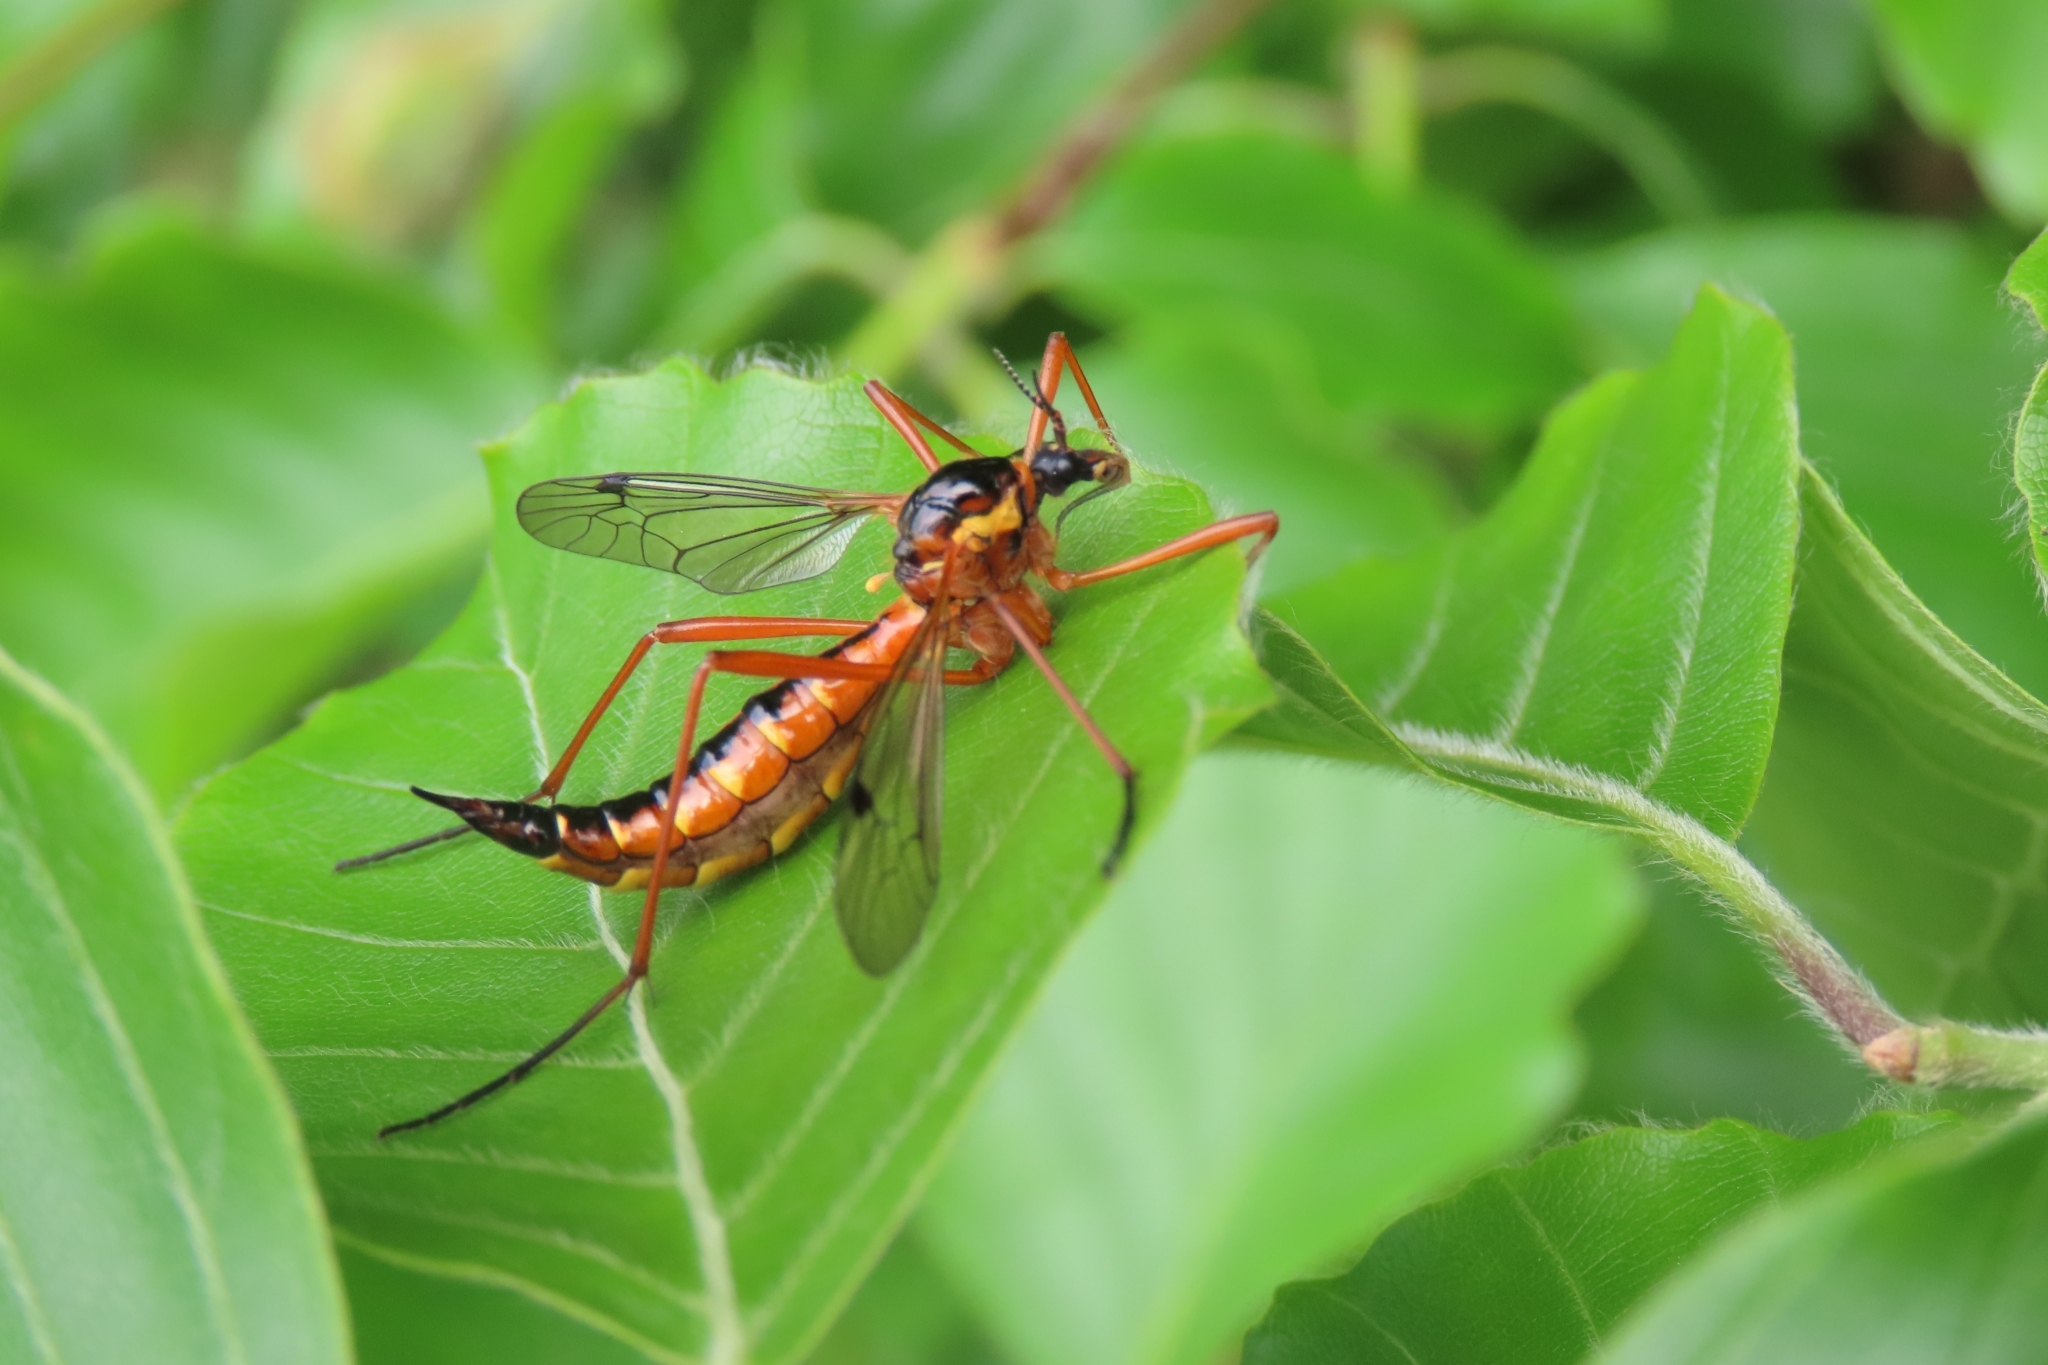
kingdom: Animalia
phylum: Arthropoda
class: Insecta
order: Diptera
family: Tipulidae
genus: Ctenophora
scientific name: Ctenophora pectinicornis
